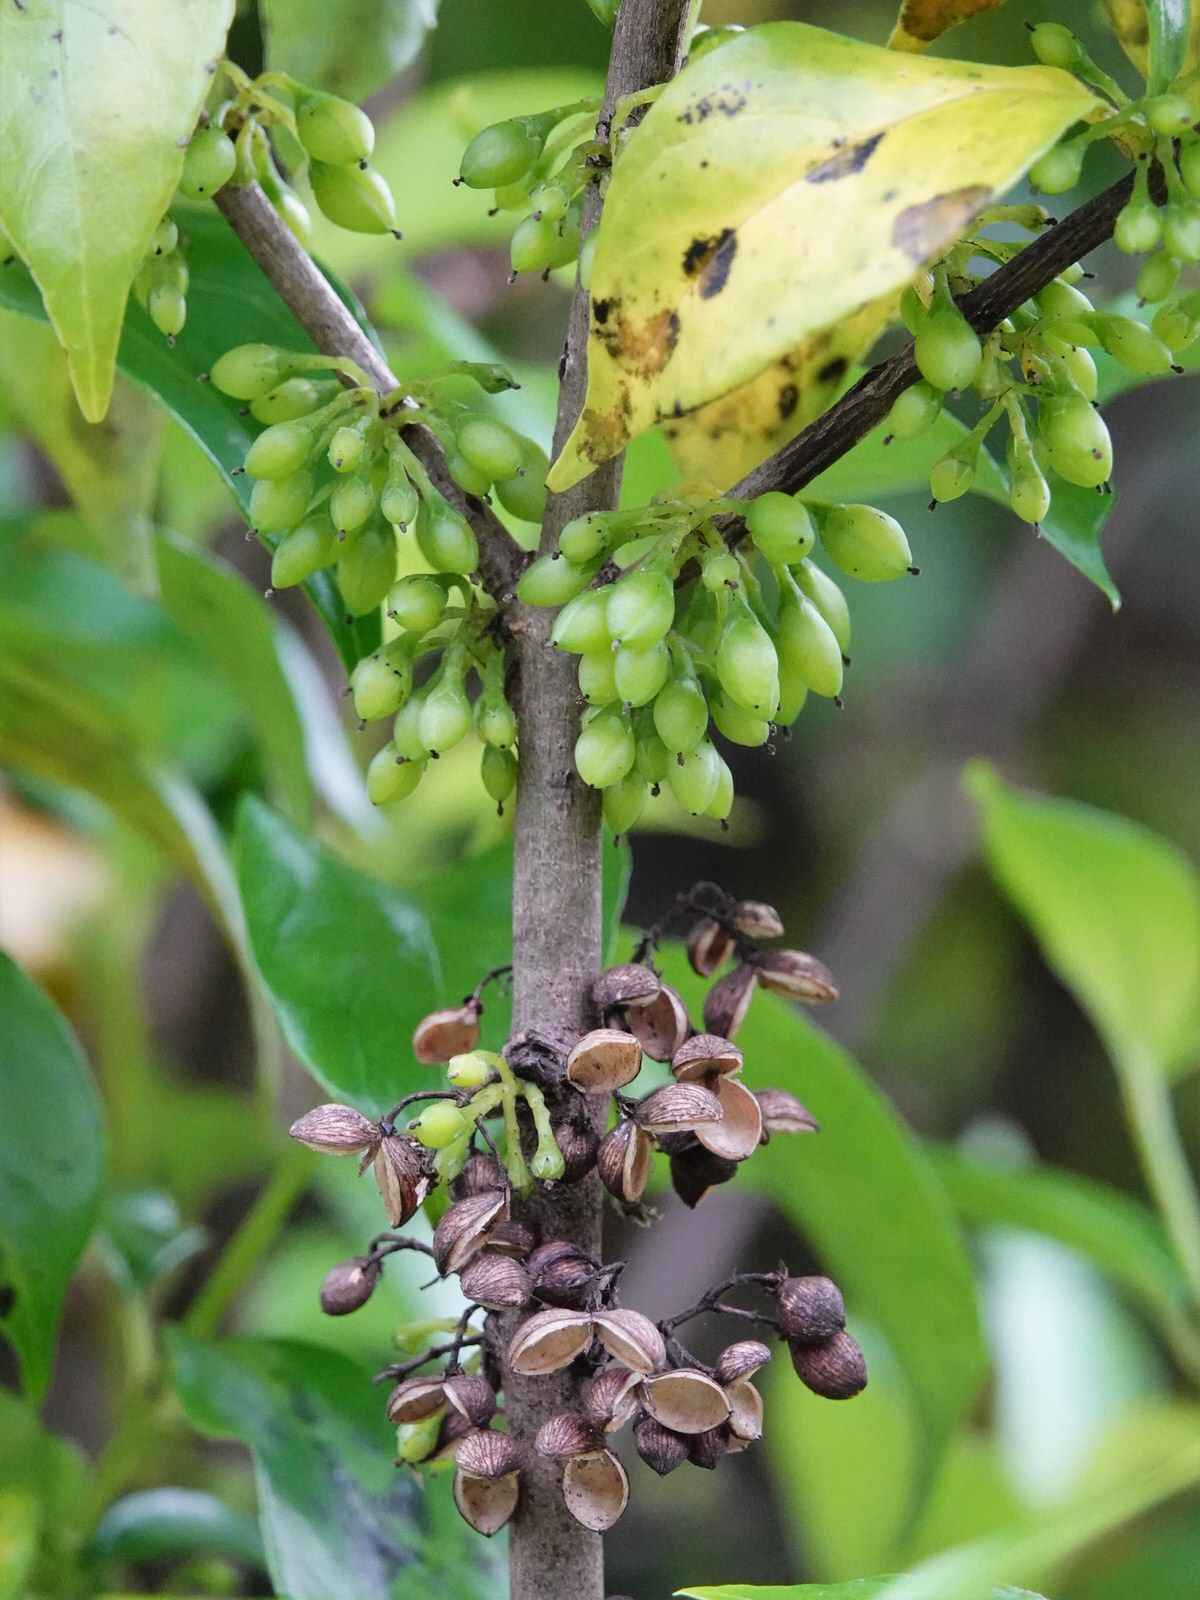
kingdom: Plantae
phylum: Tracheophyta
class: Magnoliopsida
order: Gentianales
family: Loganiaceae
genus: Geniostoma
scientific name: Geniostoma ligustrifolium
